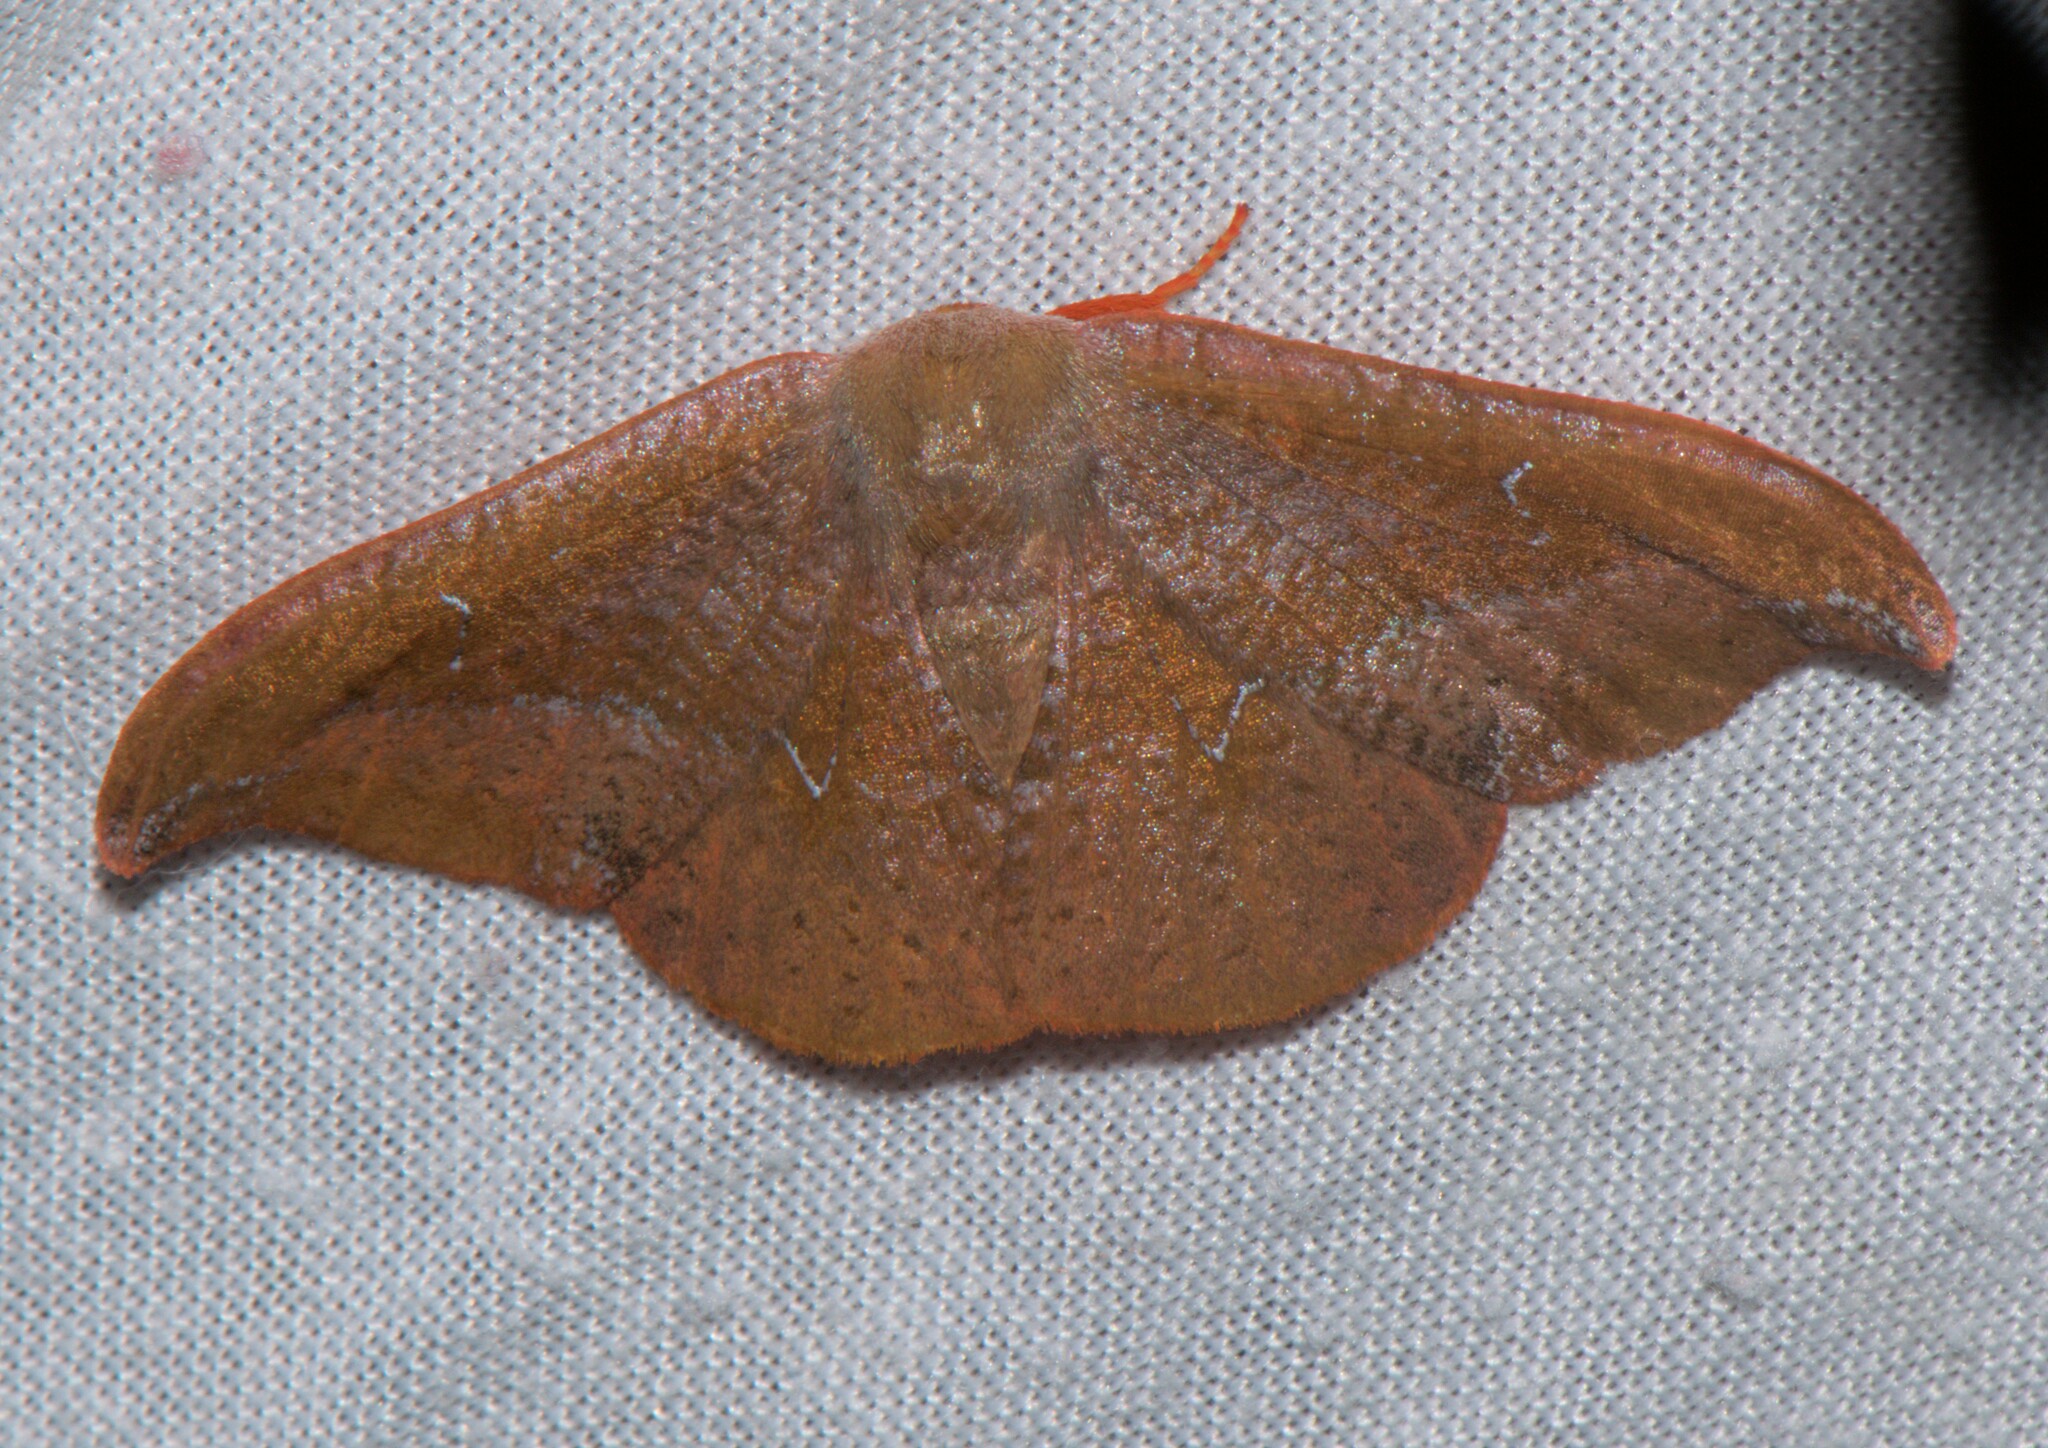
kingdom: Animalia
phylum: Arthropoda
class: Insecta
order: Lepidoptera
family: Drepanidae
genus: Oreta
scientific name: Oreta pavaca
